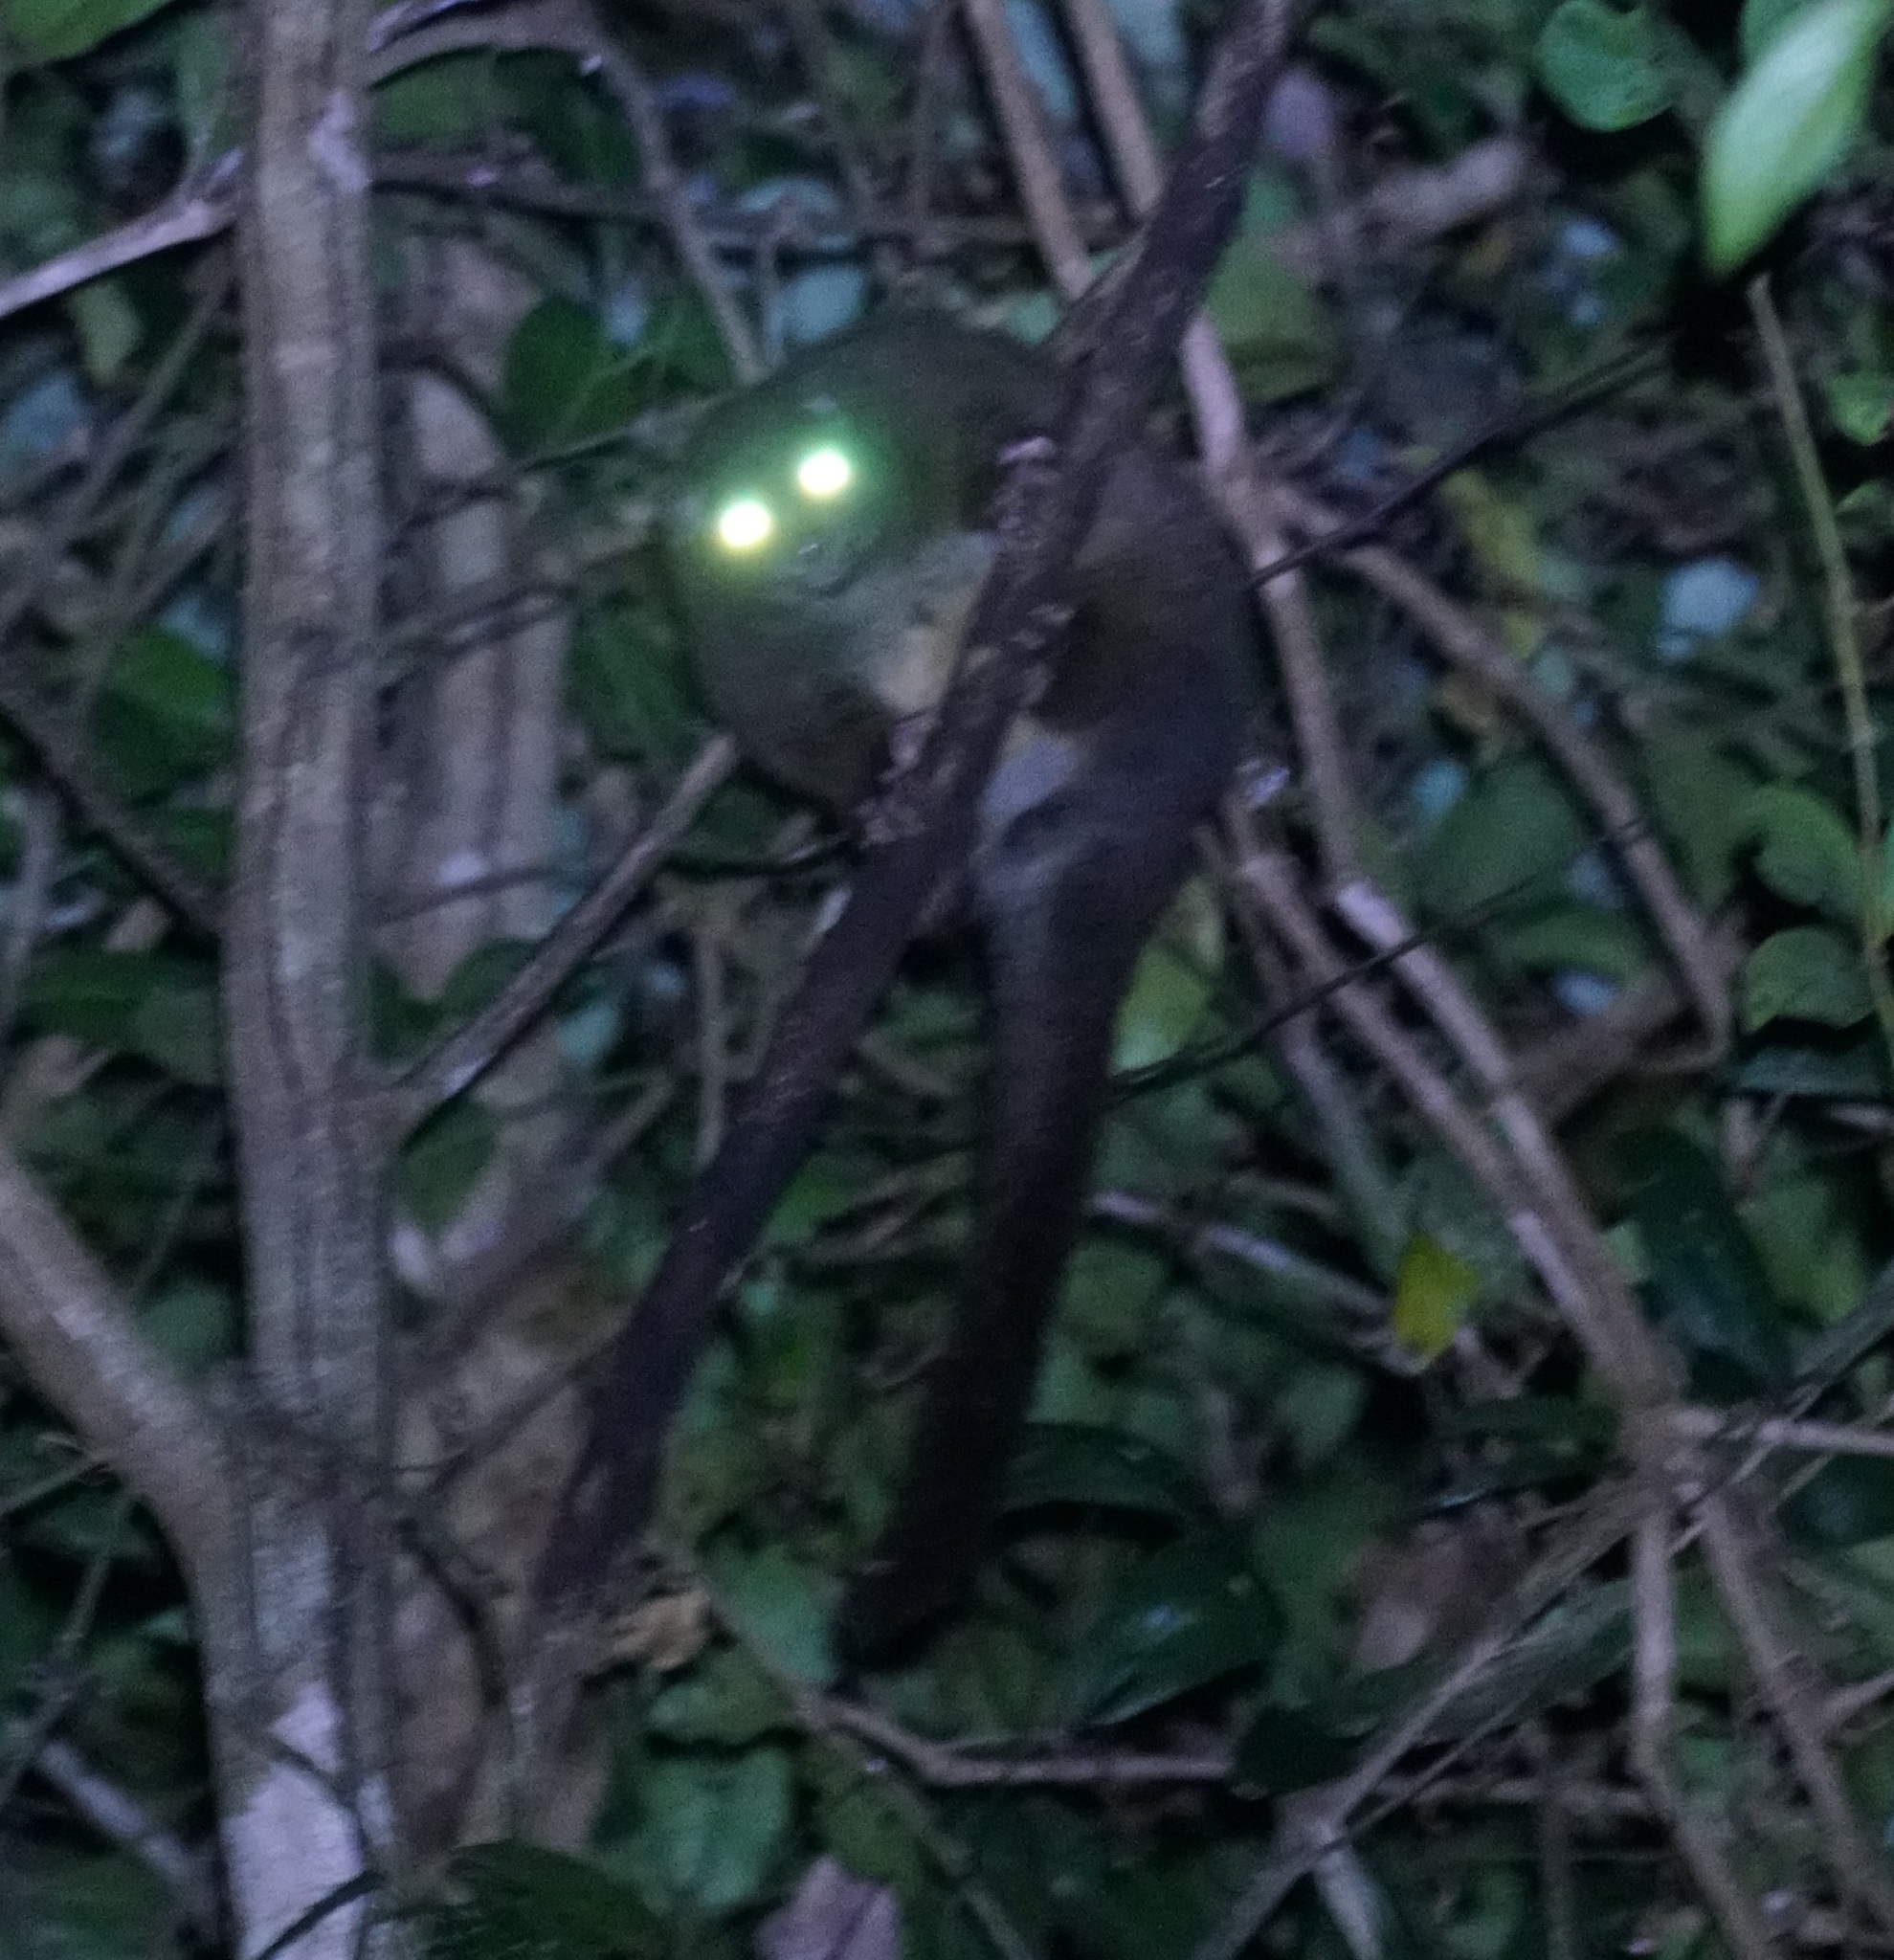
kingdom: Animalia
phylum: Chordata
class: Mammalia
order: Diprotodontia
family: Pseudocheiridae
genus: Hemibelideus
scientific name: Hemibelideus lemuroides
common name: Lemur-like ringtail
